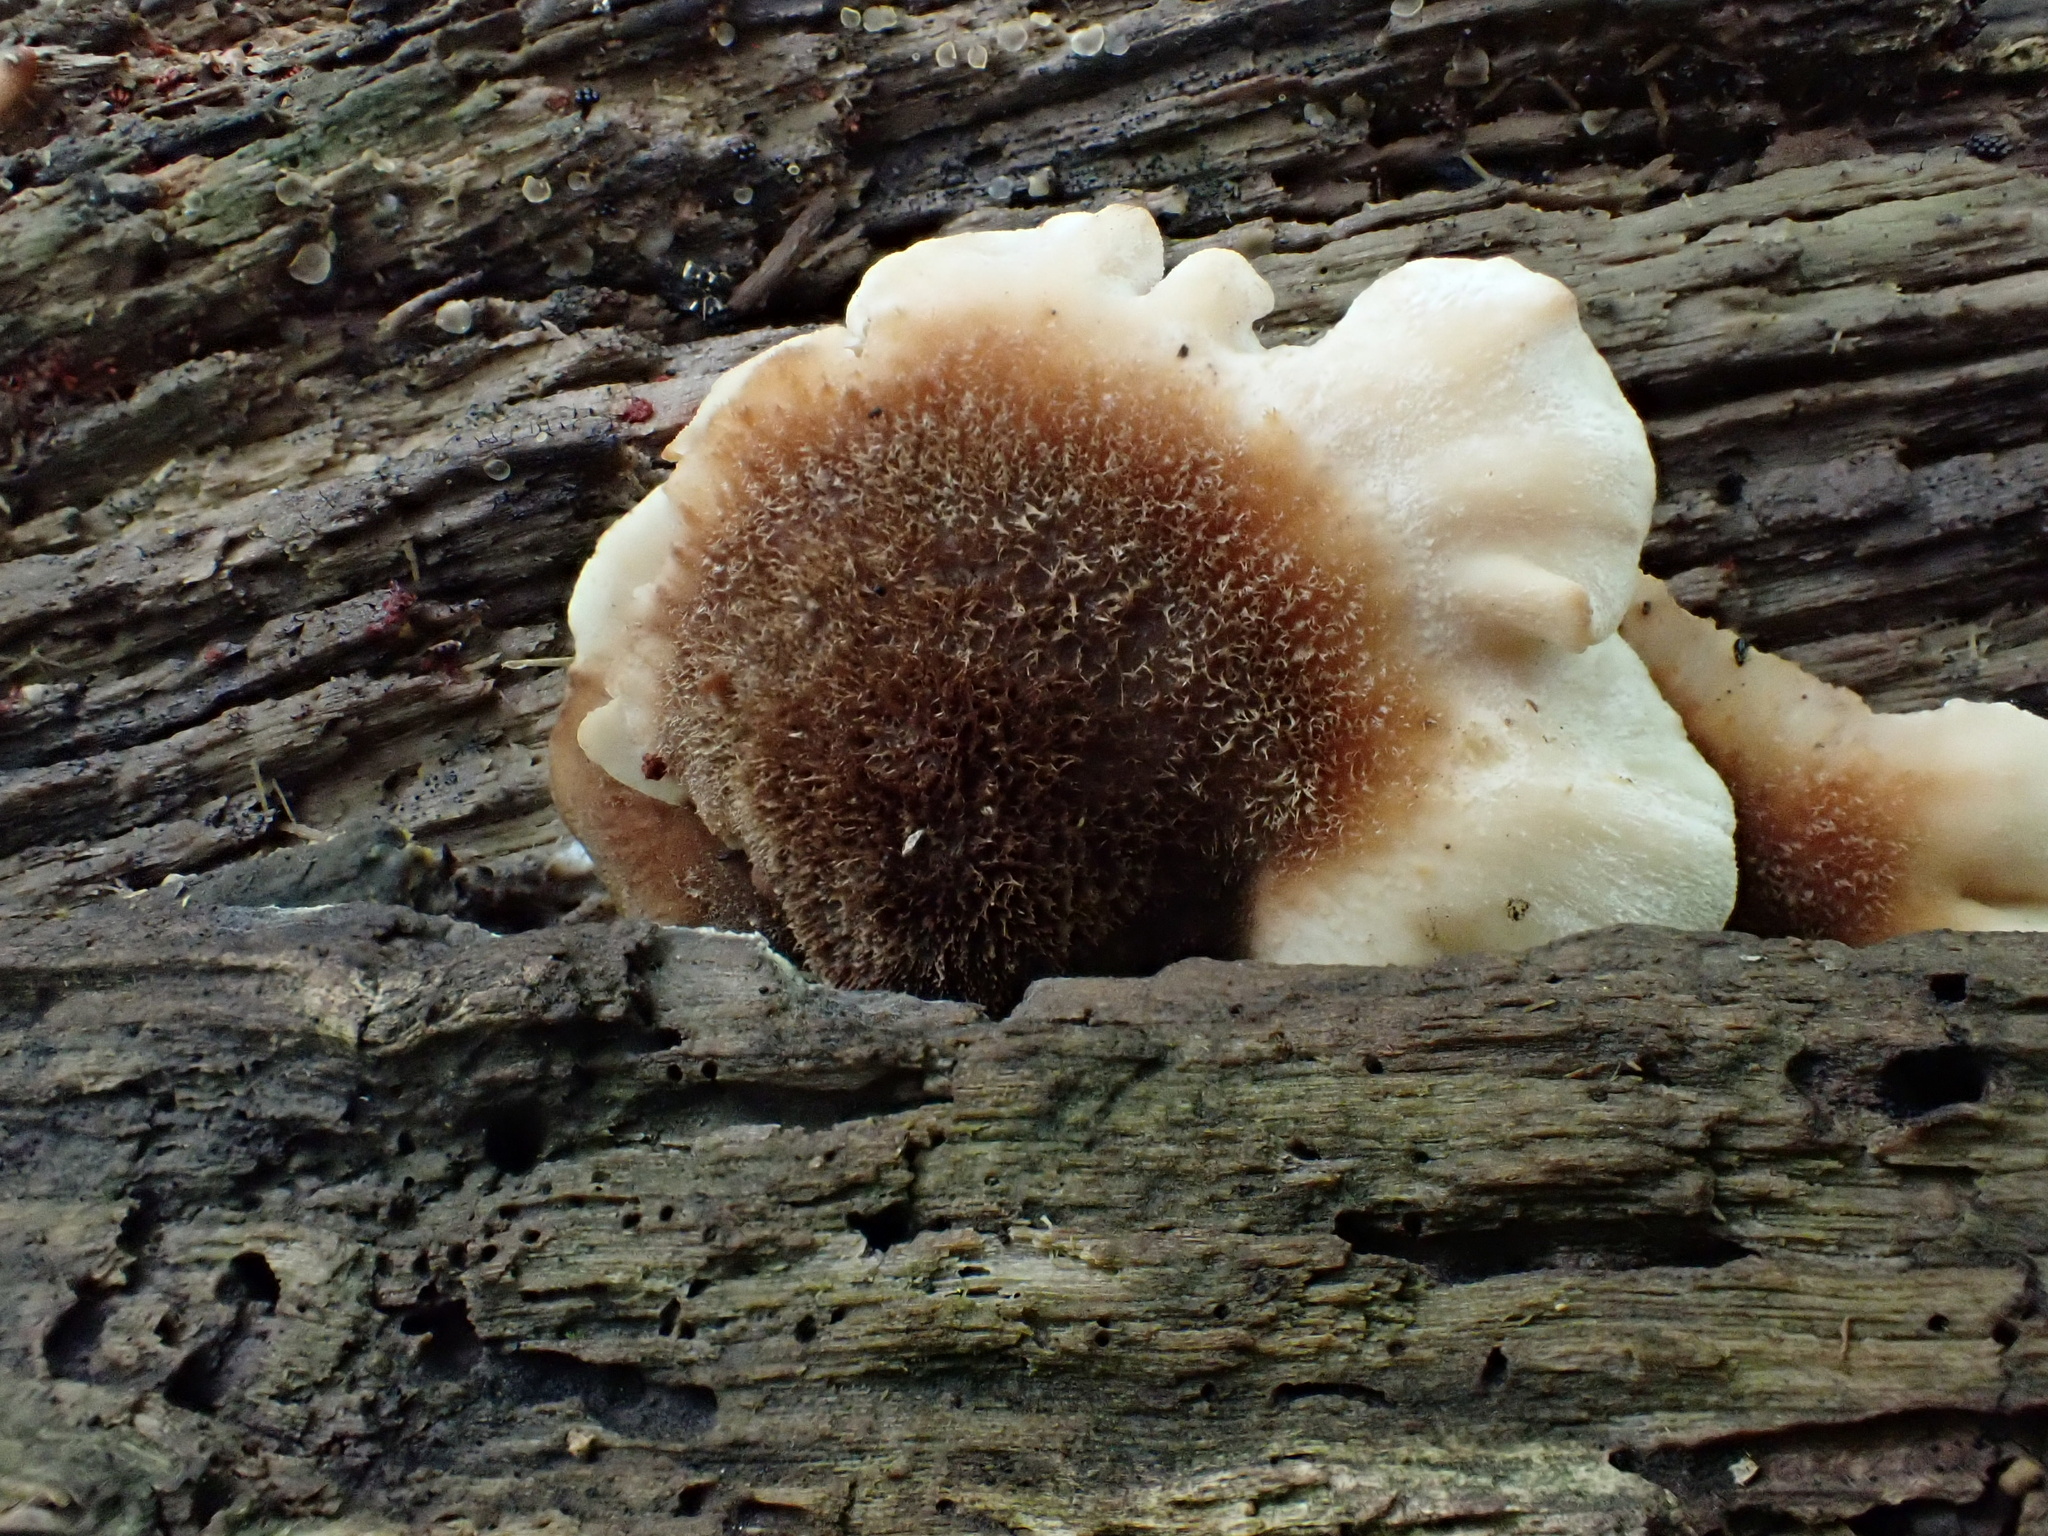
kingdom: Fungi
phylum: Basidiomycota
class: Agaricomycetes
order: Russulales
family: Auriscalpiaceae
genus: Lentinellus
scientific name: Lentinellus ursinus
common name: Bear lentinus
